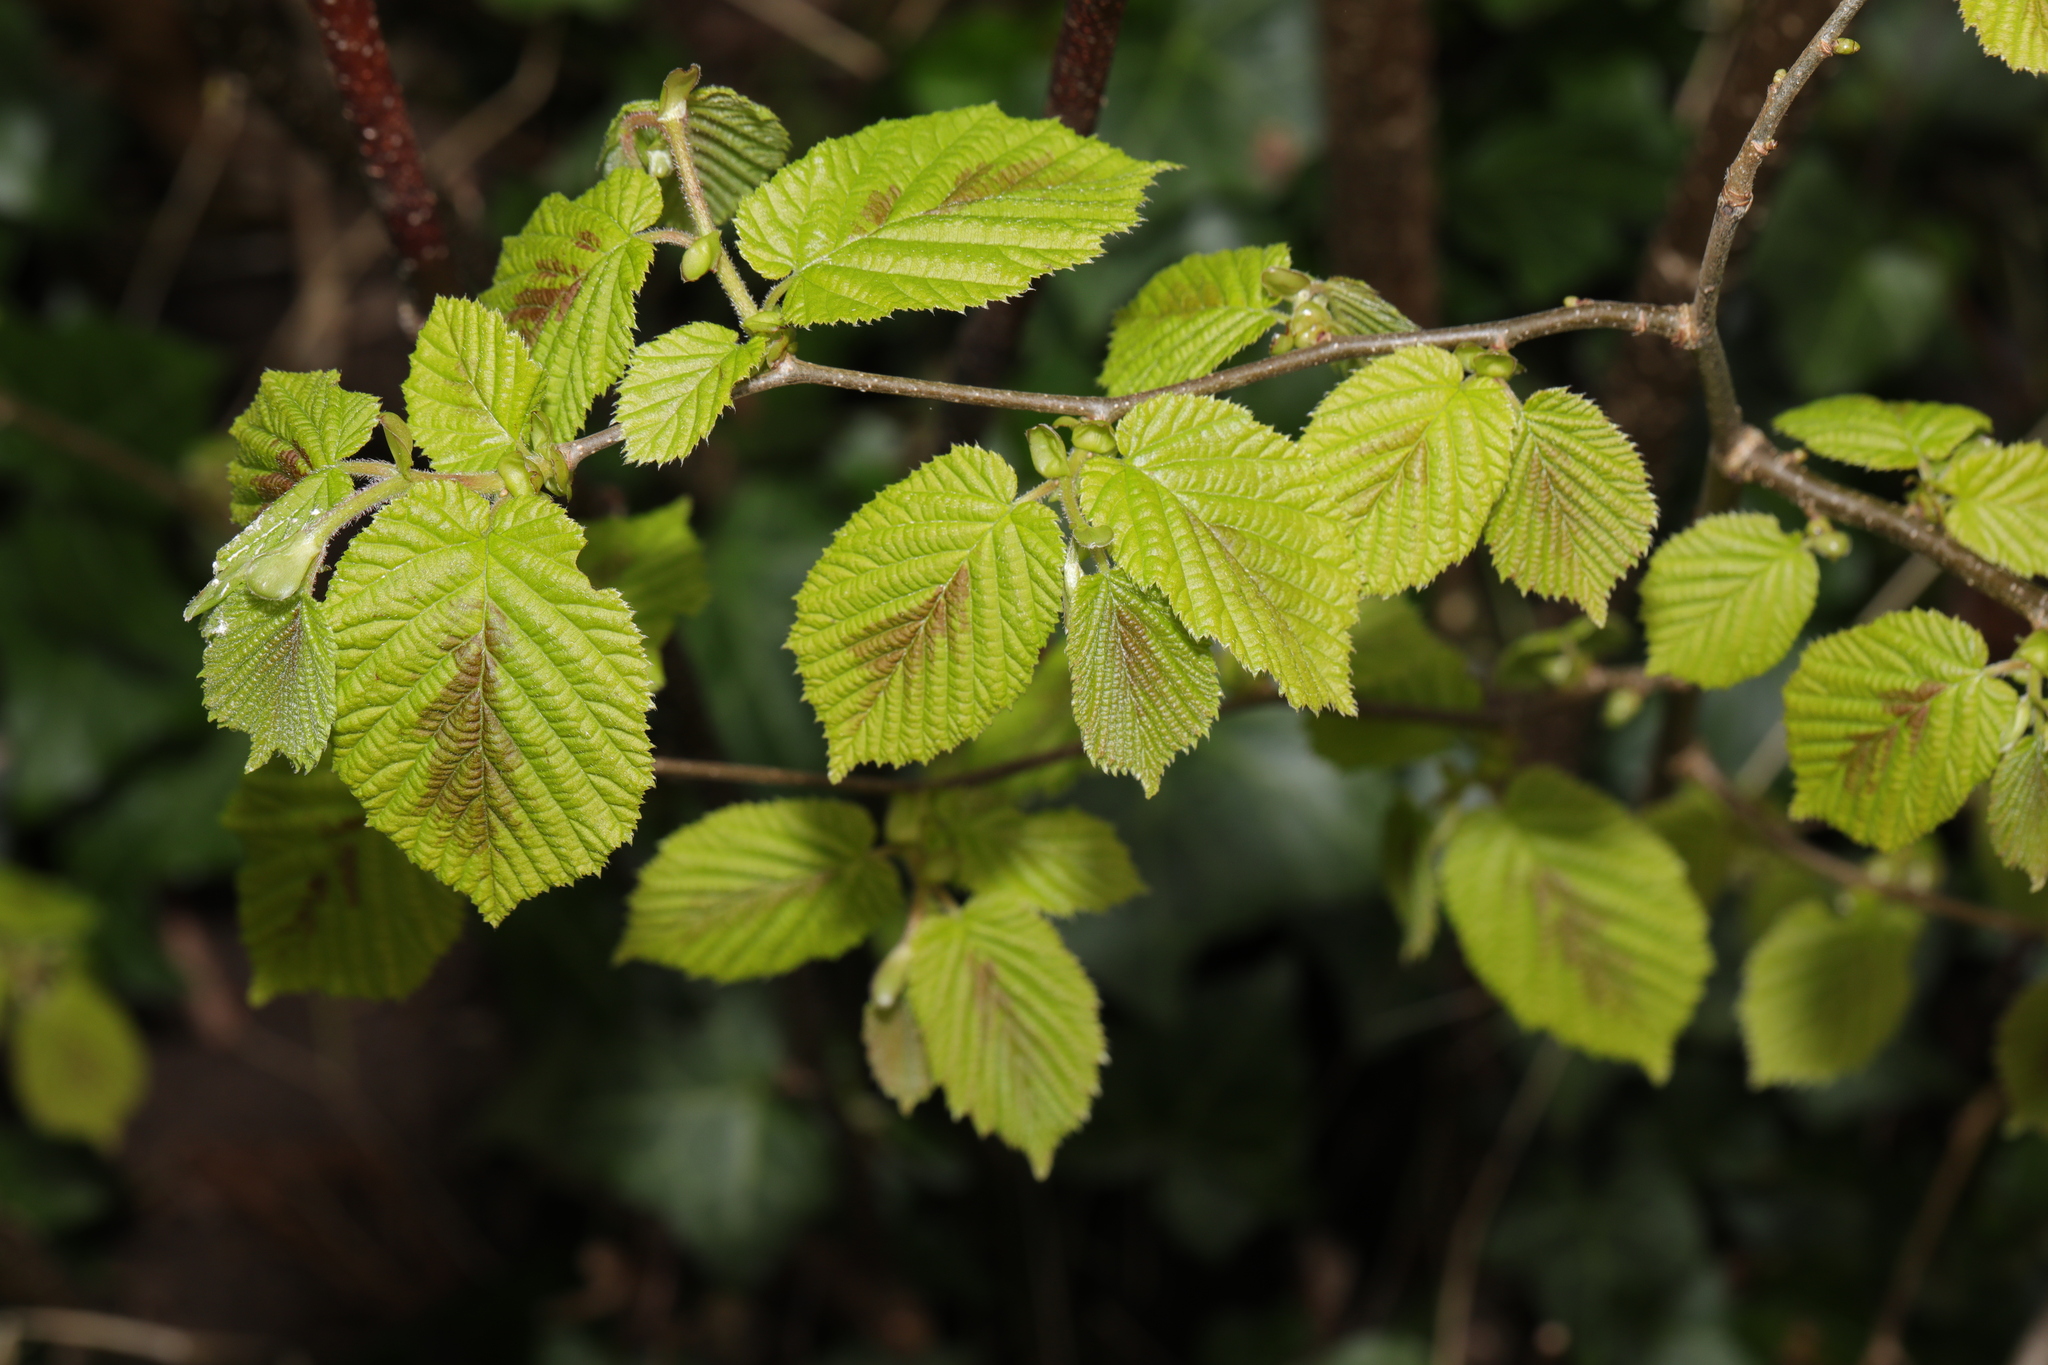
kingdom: Plantae
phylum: Tracheophyta
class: Magnoliopsida
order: Fagales
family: Betulaceae
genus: Corylus
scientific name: Corylus avellana
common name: European hazel
